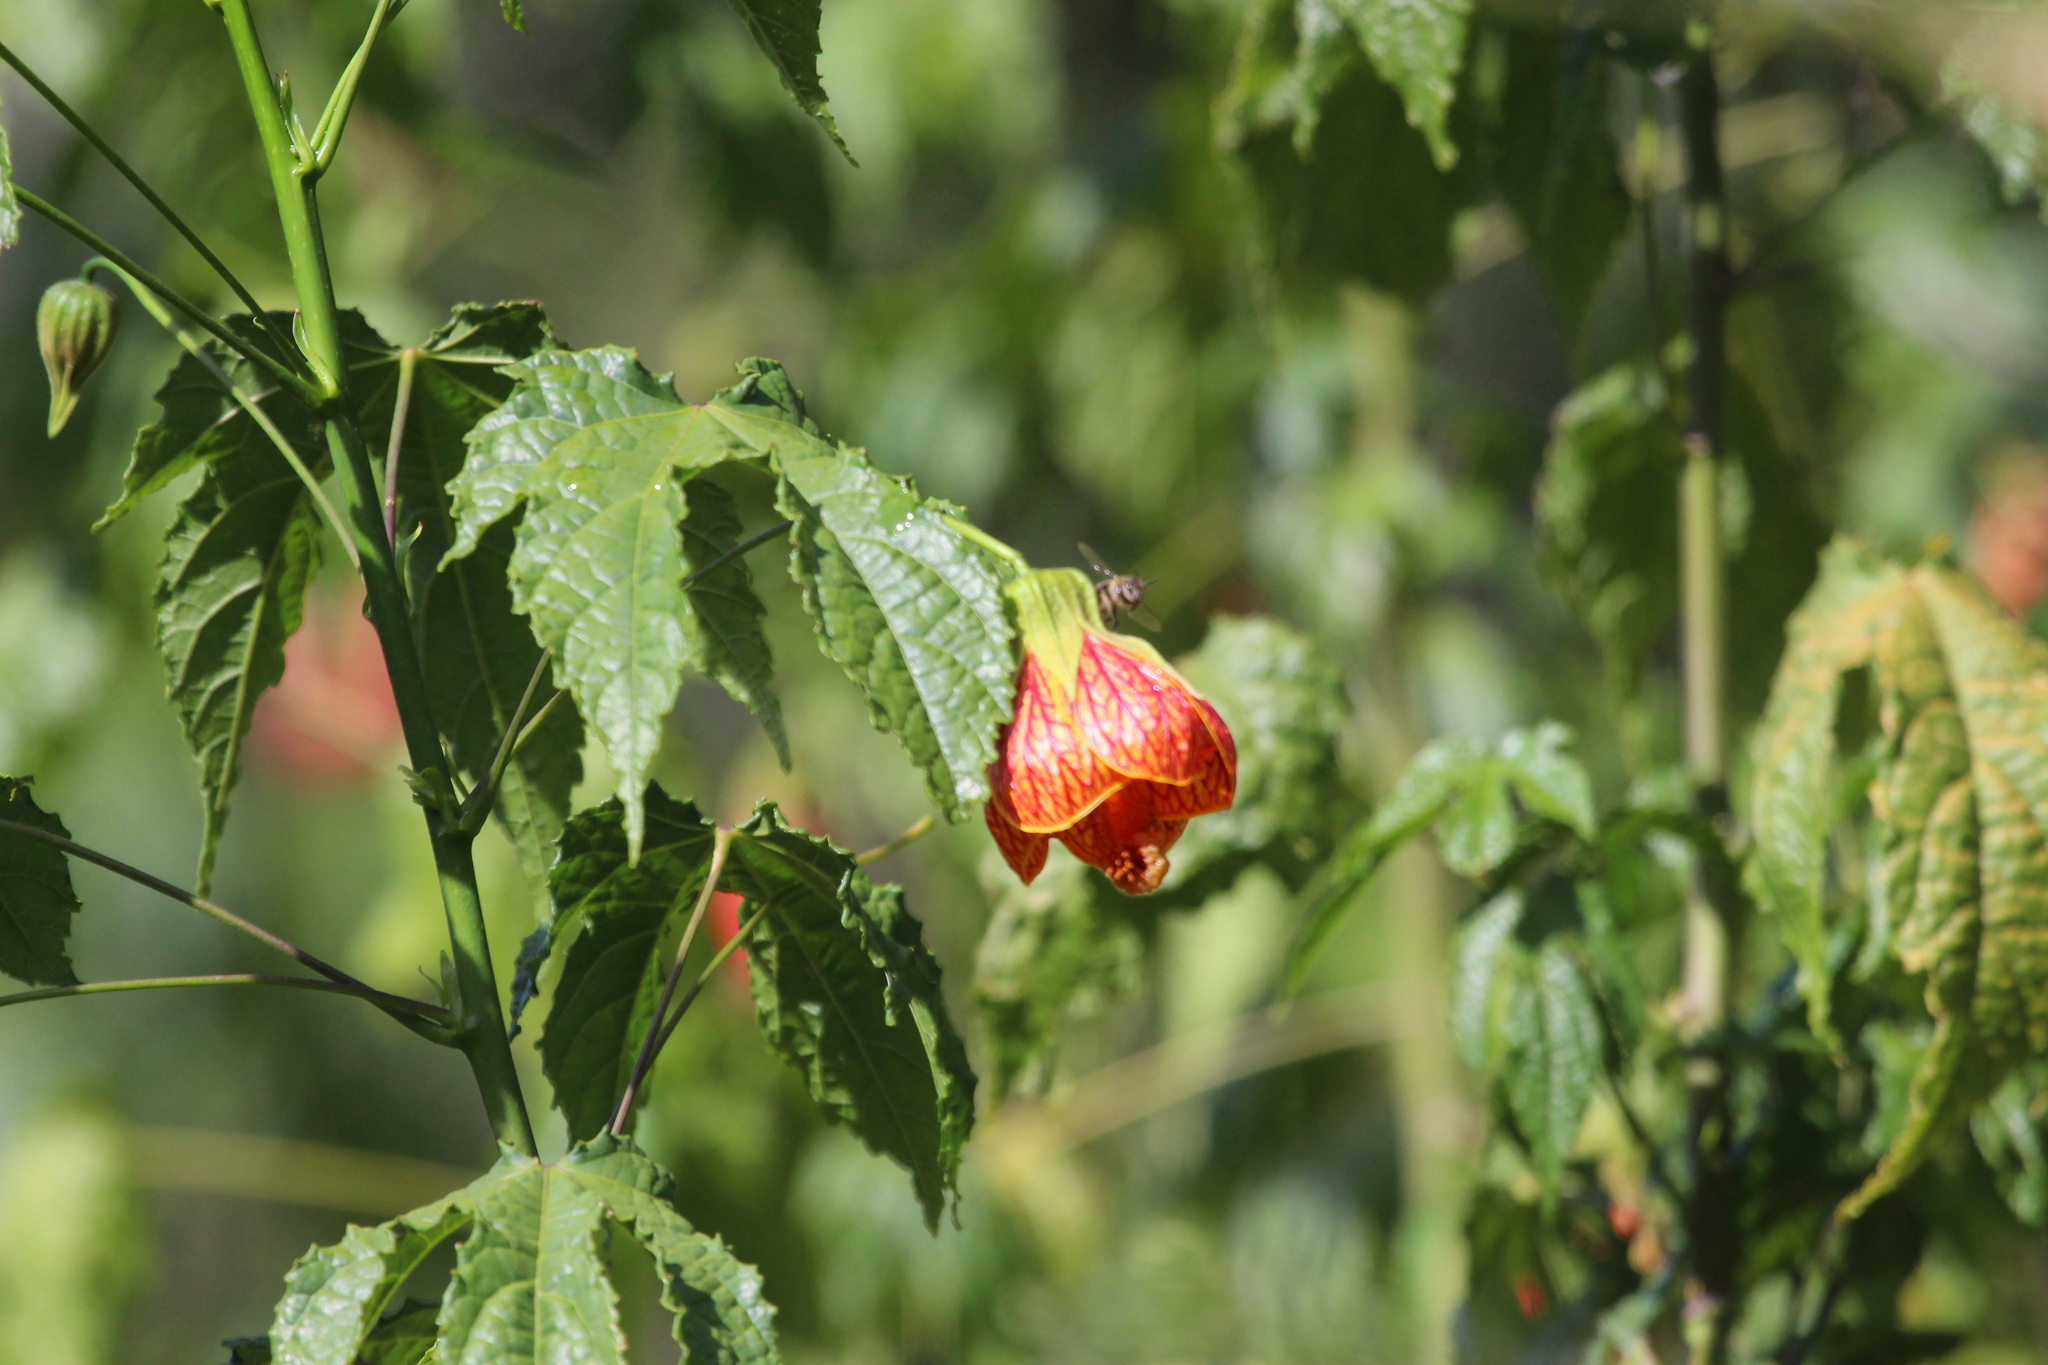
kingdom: Plantae
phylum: Tracheophyta
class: Magnoliopsida
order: Malvales
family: Malvaceae
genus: Callianthe
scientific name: Callianthe picta
